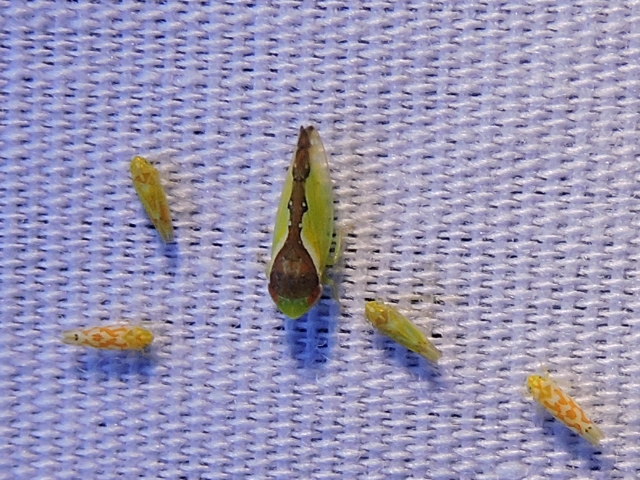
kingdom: Animalia
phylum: Arthropoda
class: Insecta
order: Hemiptera
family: Cicadellidae
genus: Omansobara ing
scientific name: Omansobara ing Omansobara palliolata
